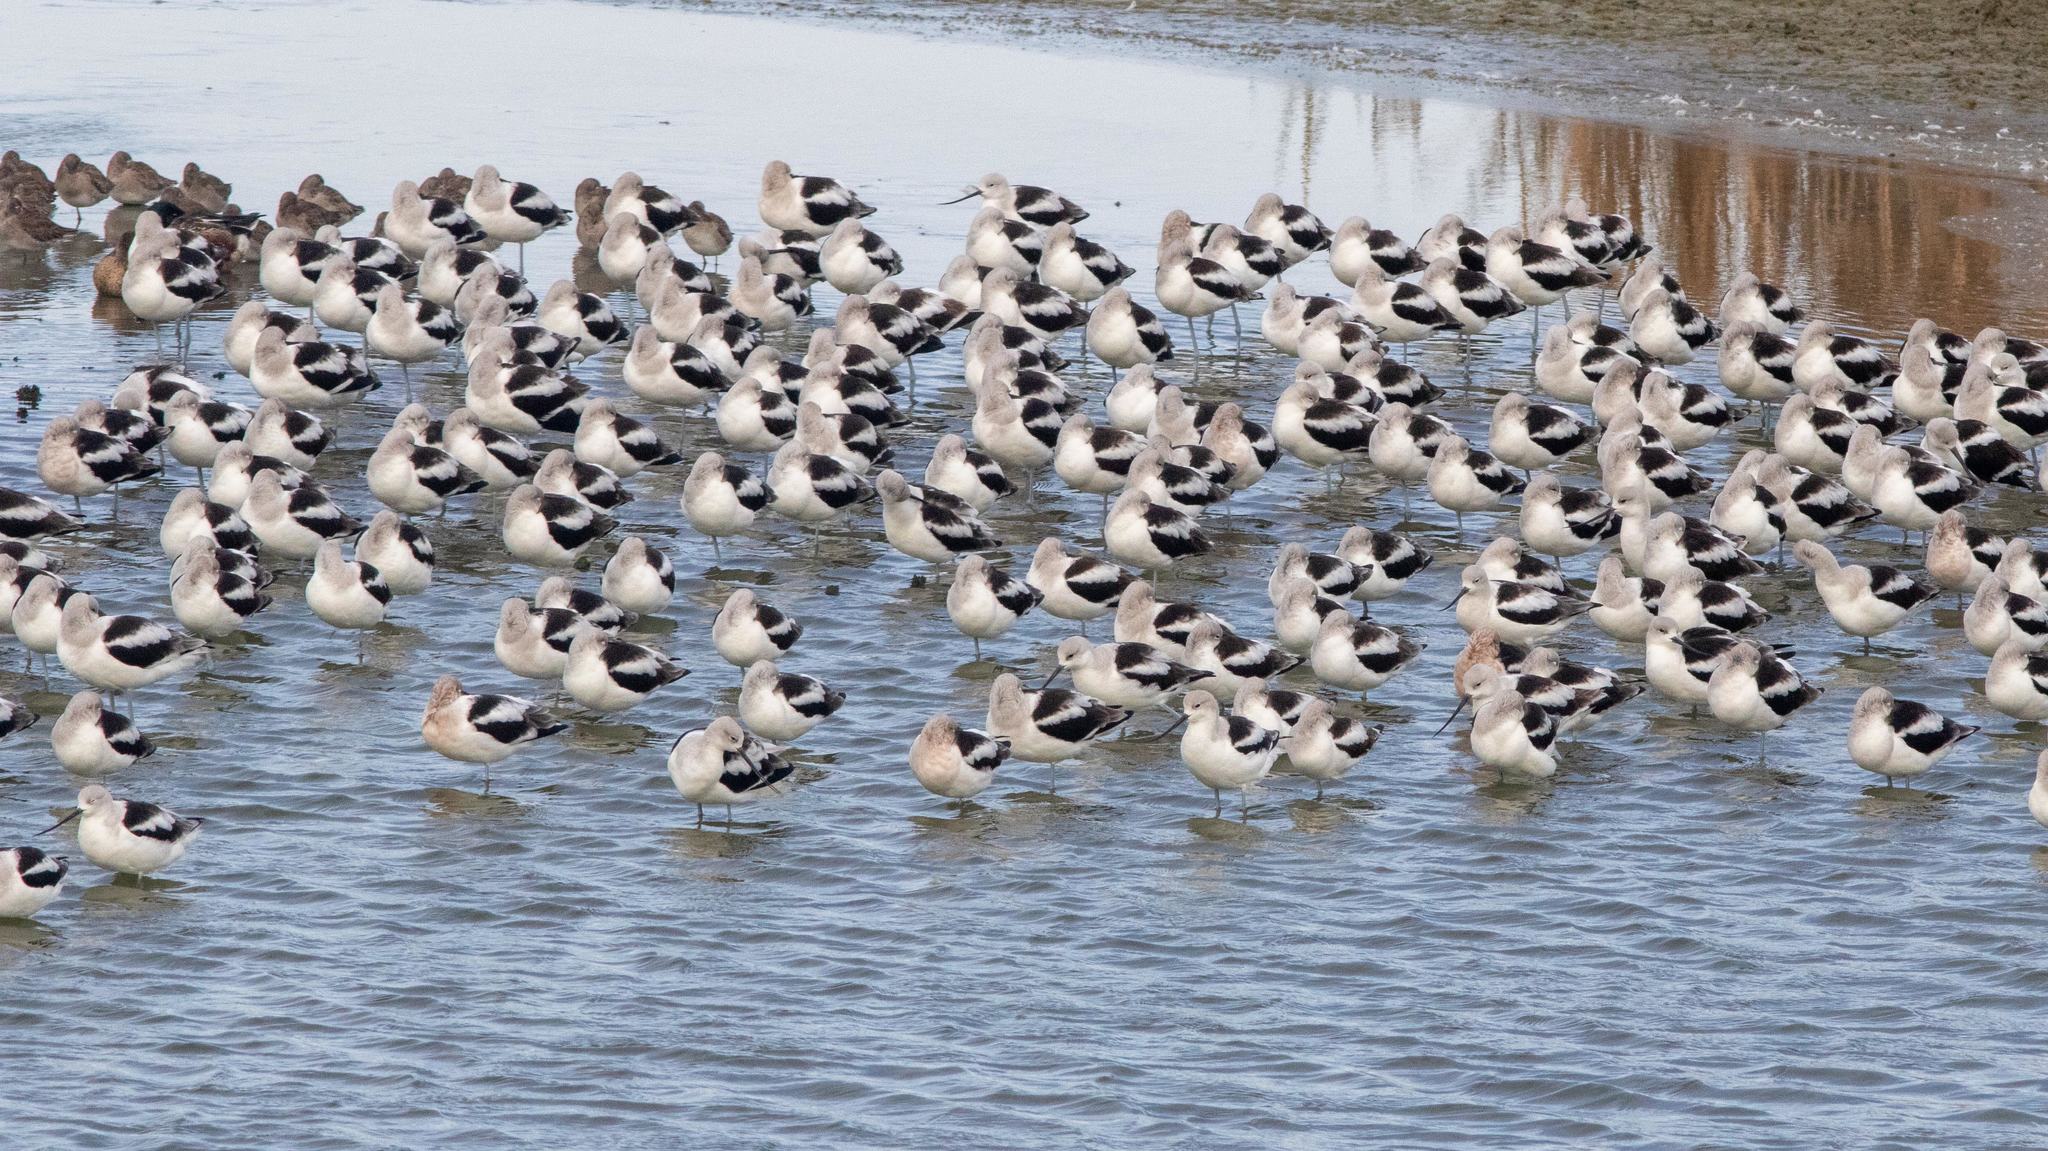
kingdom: Animalia
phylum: Chordata
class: Aves
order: Charadriiformes
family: Recurvirostridae
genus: Recurvirostra
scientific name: Recurvirostra americana
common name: American avocet
